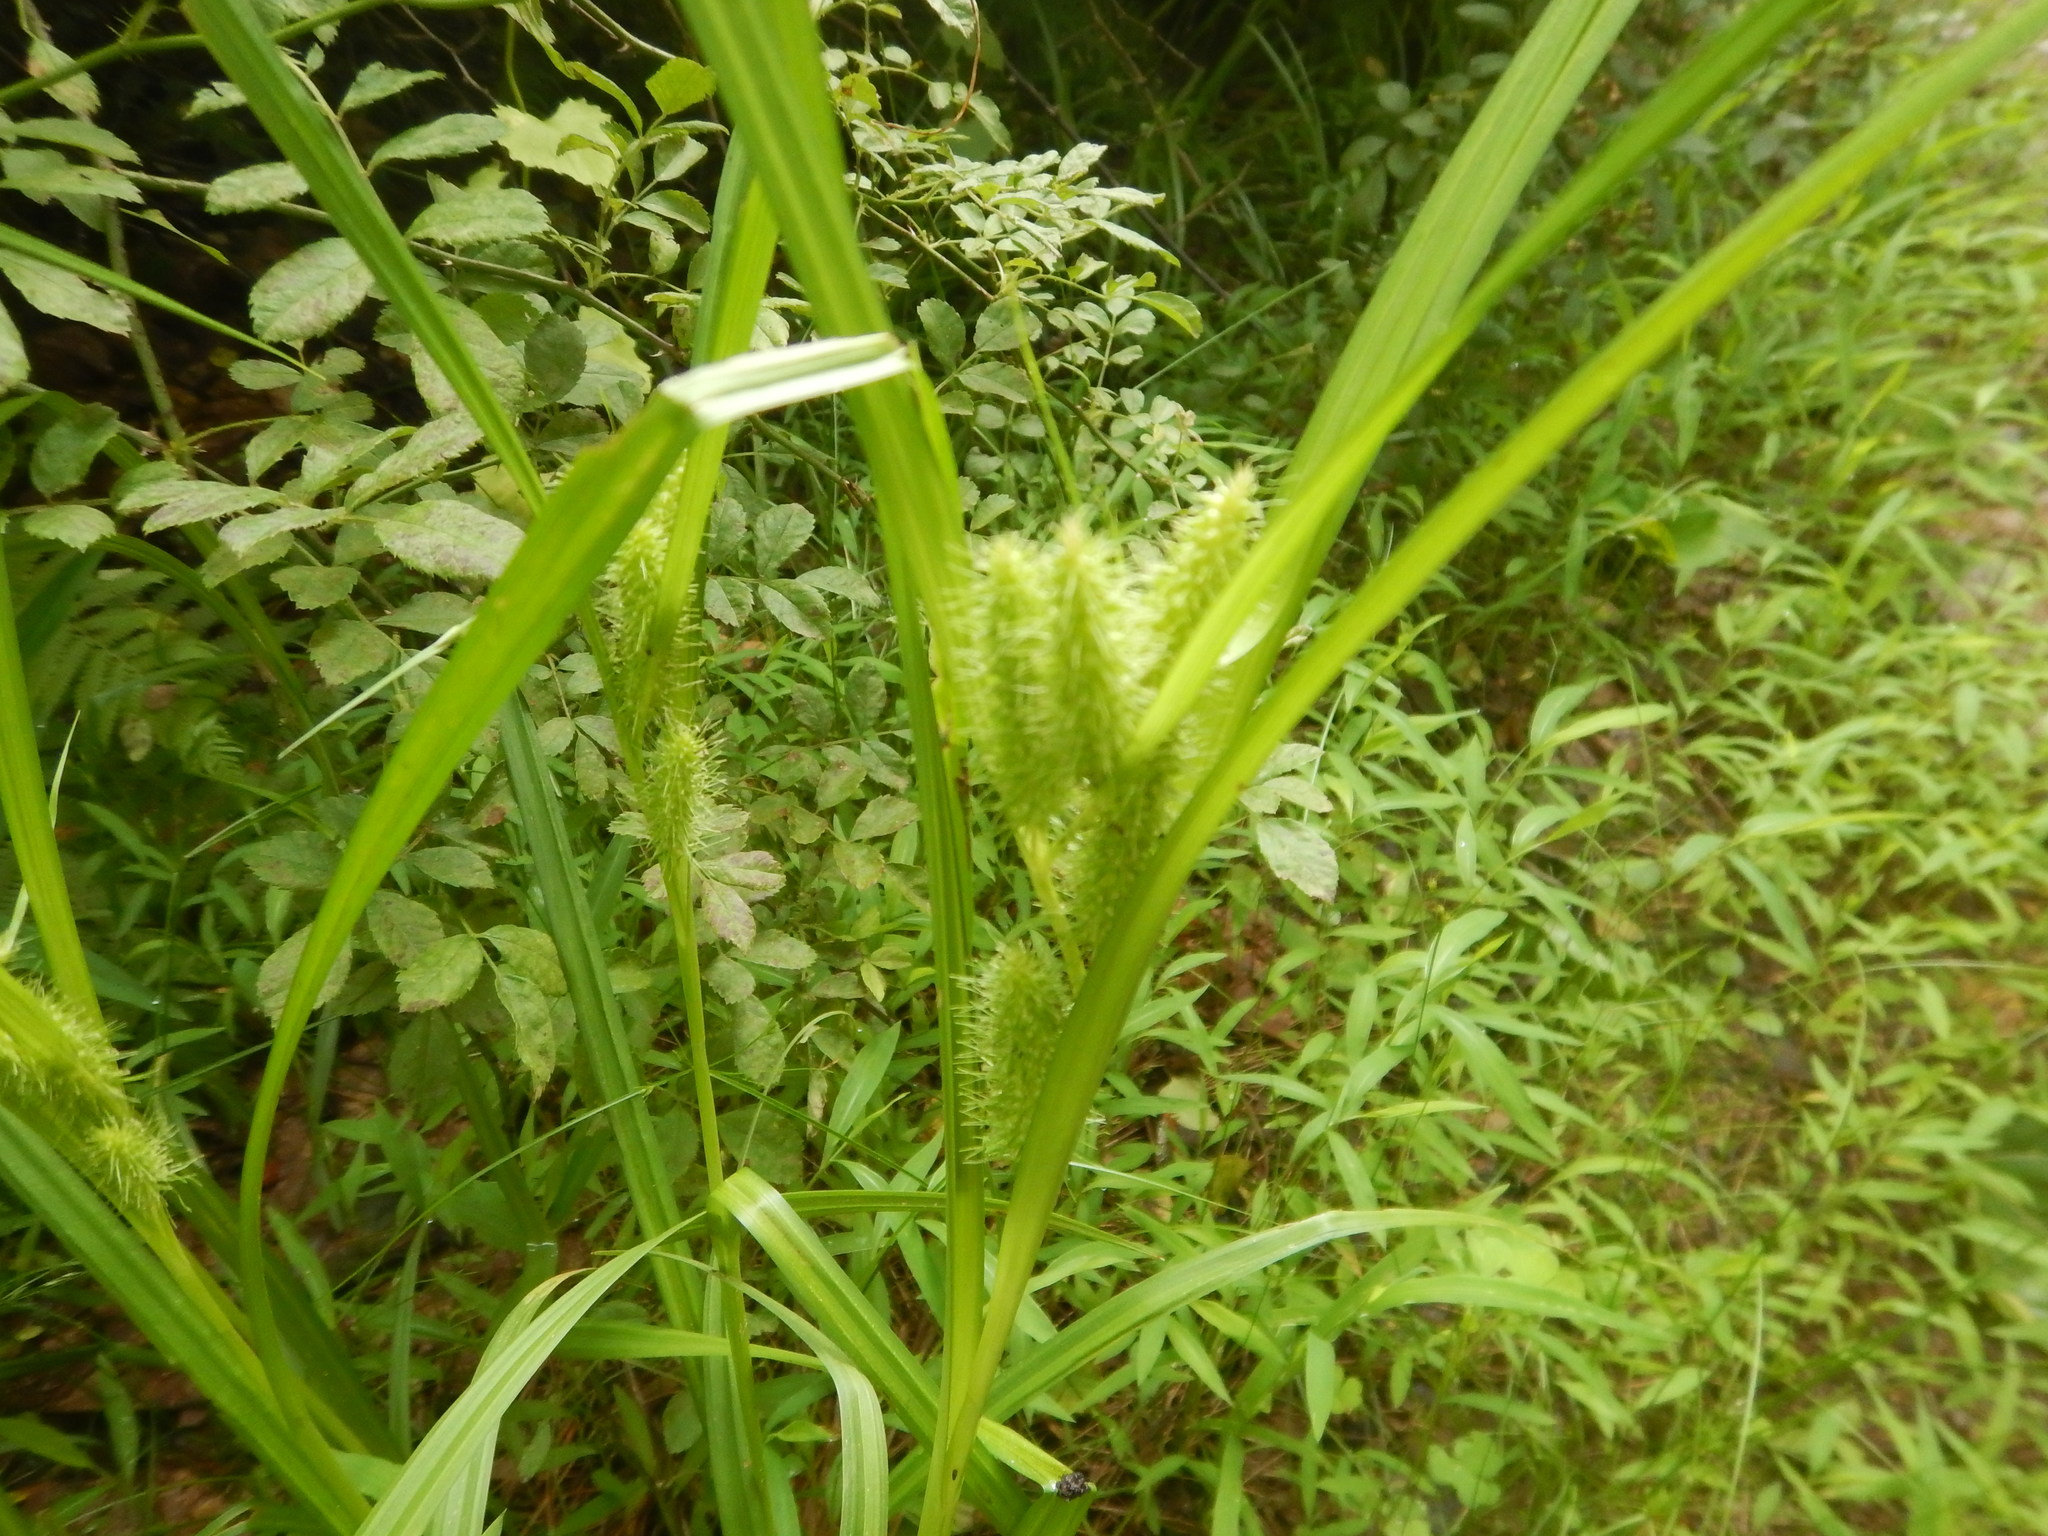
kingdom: Plantae
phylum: Tracheophyta
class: Liliopsida
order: Poales
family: Cyperaceae
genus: Carex
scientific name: Carex frankii
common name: Frank's sedge
